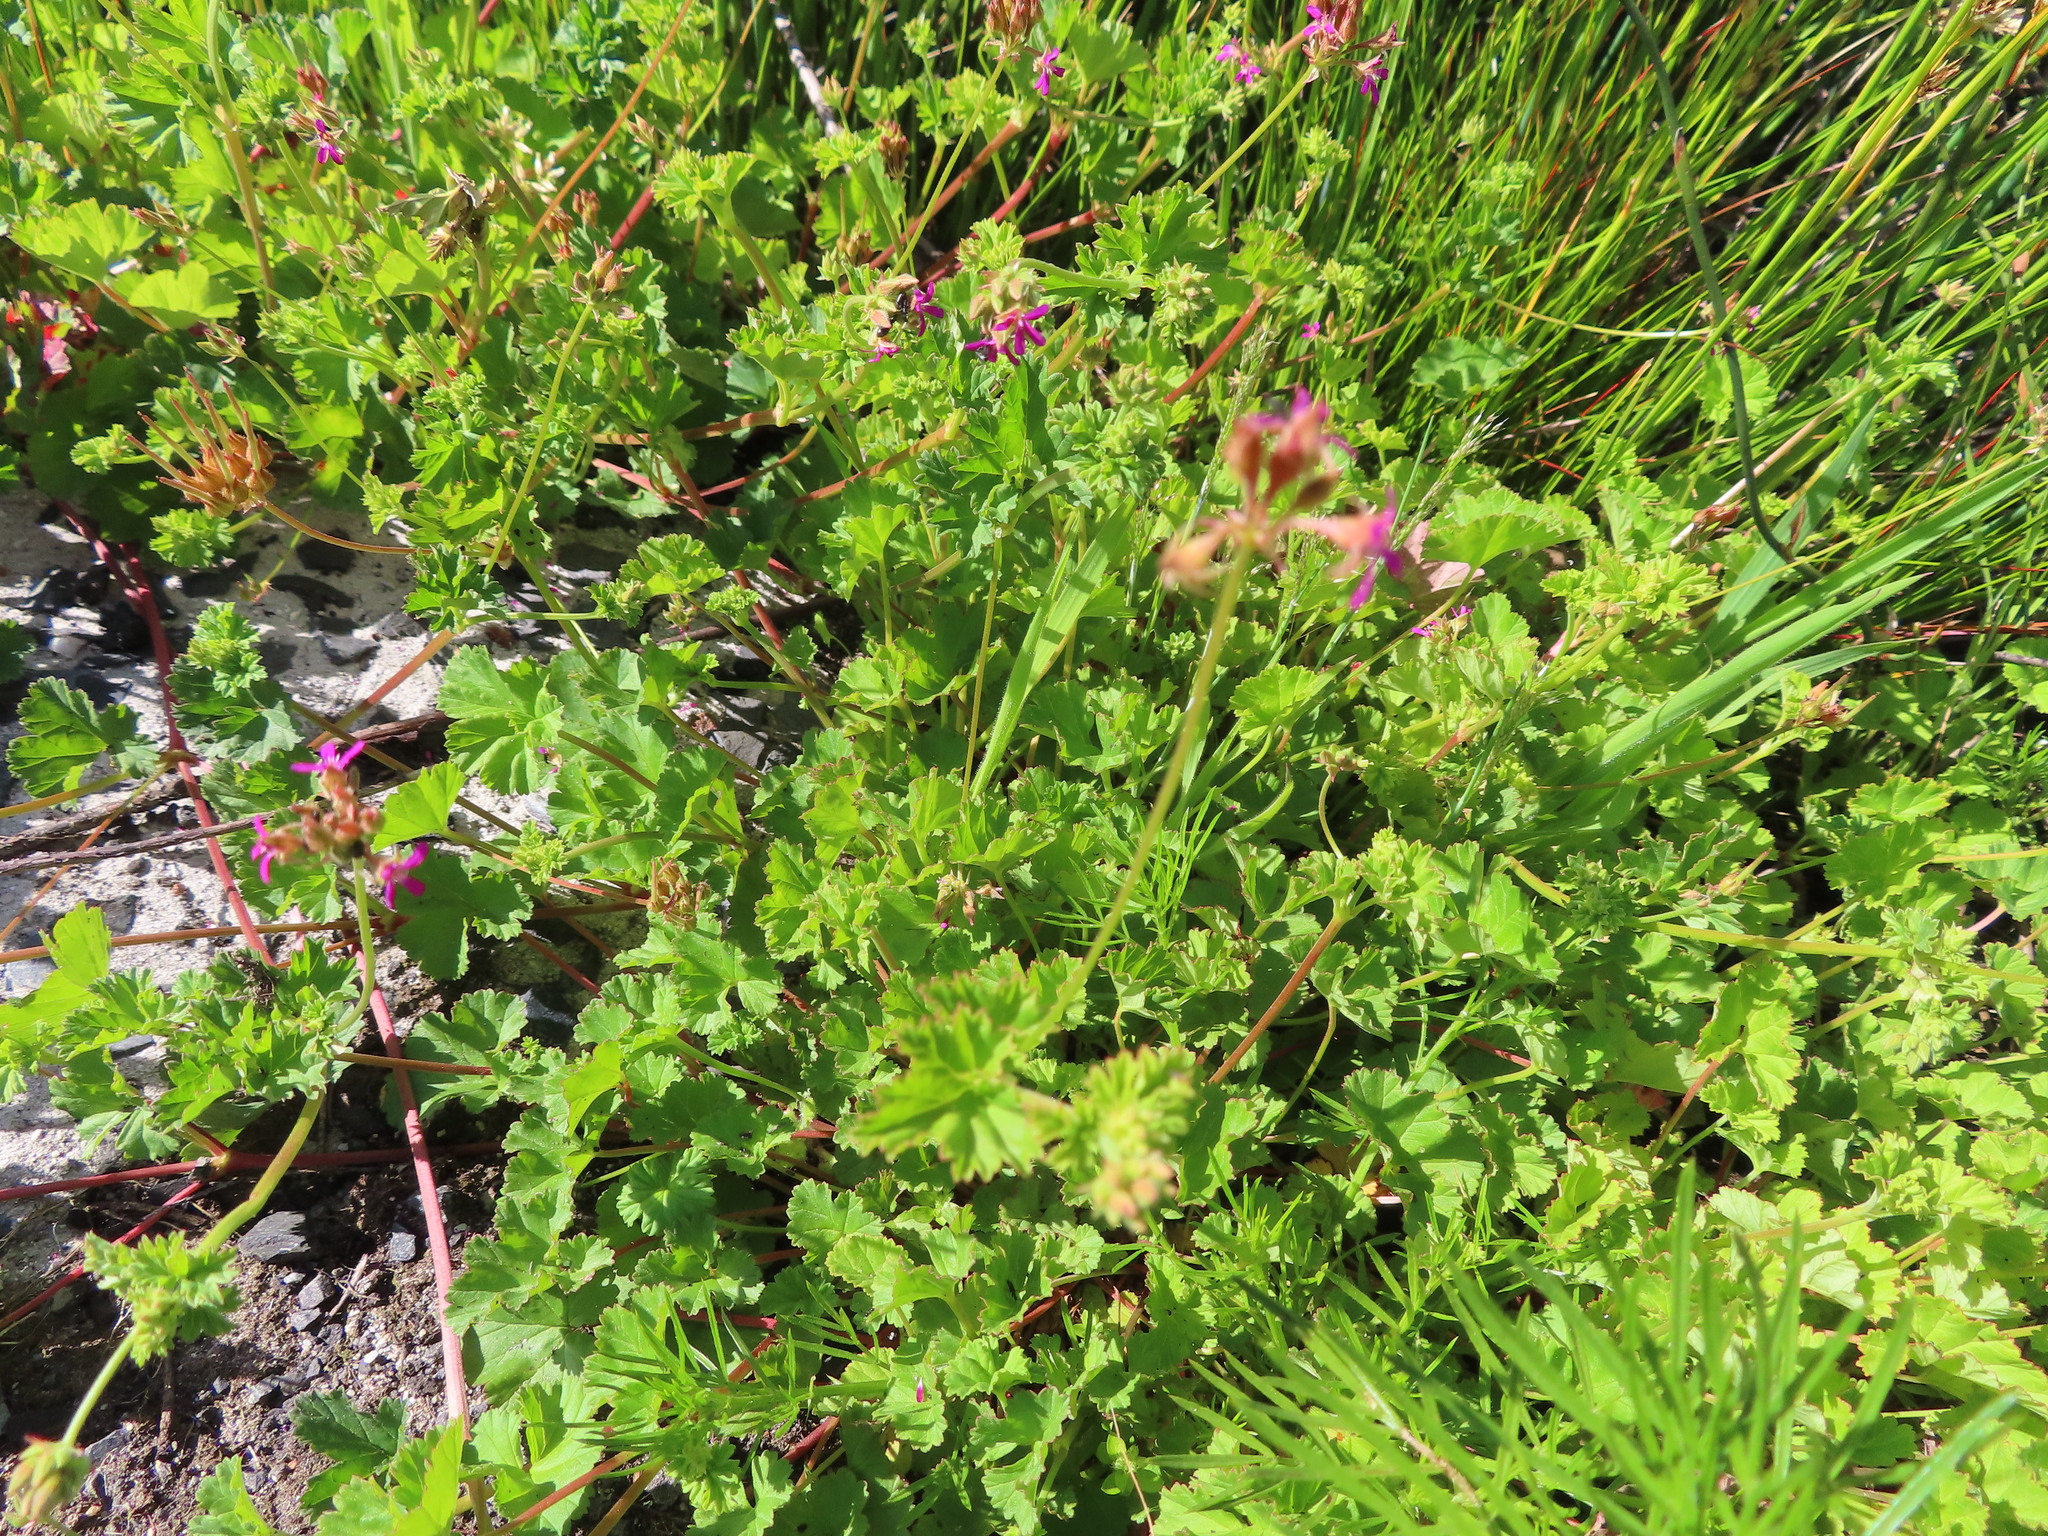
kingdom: Plantae
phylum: Tracheophyta
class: Magnoliopsida
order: Geraniales
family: Geraniaceae
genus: Pelargonium
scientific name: Pelargonium grossularioides
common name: Gooseberry geranium
